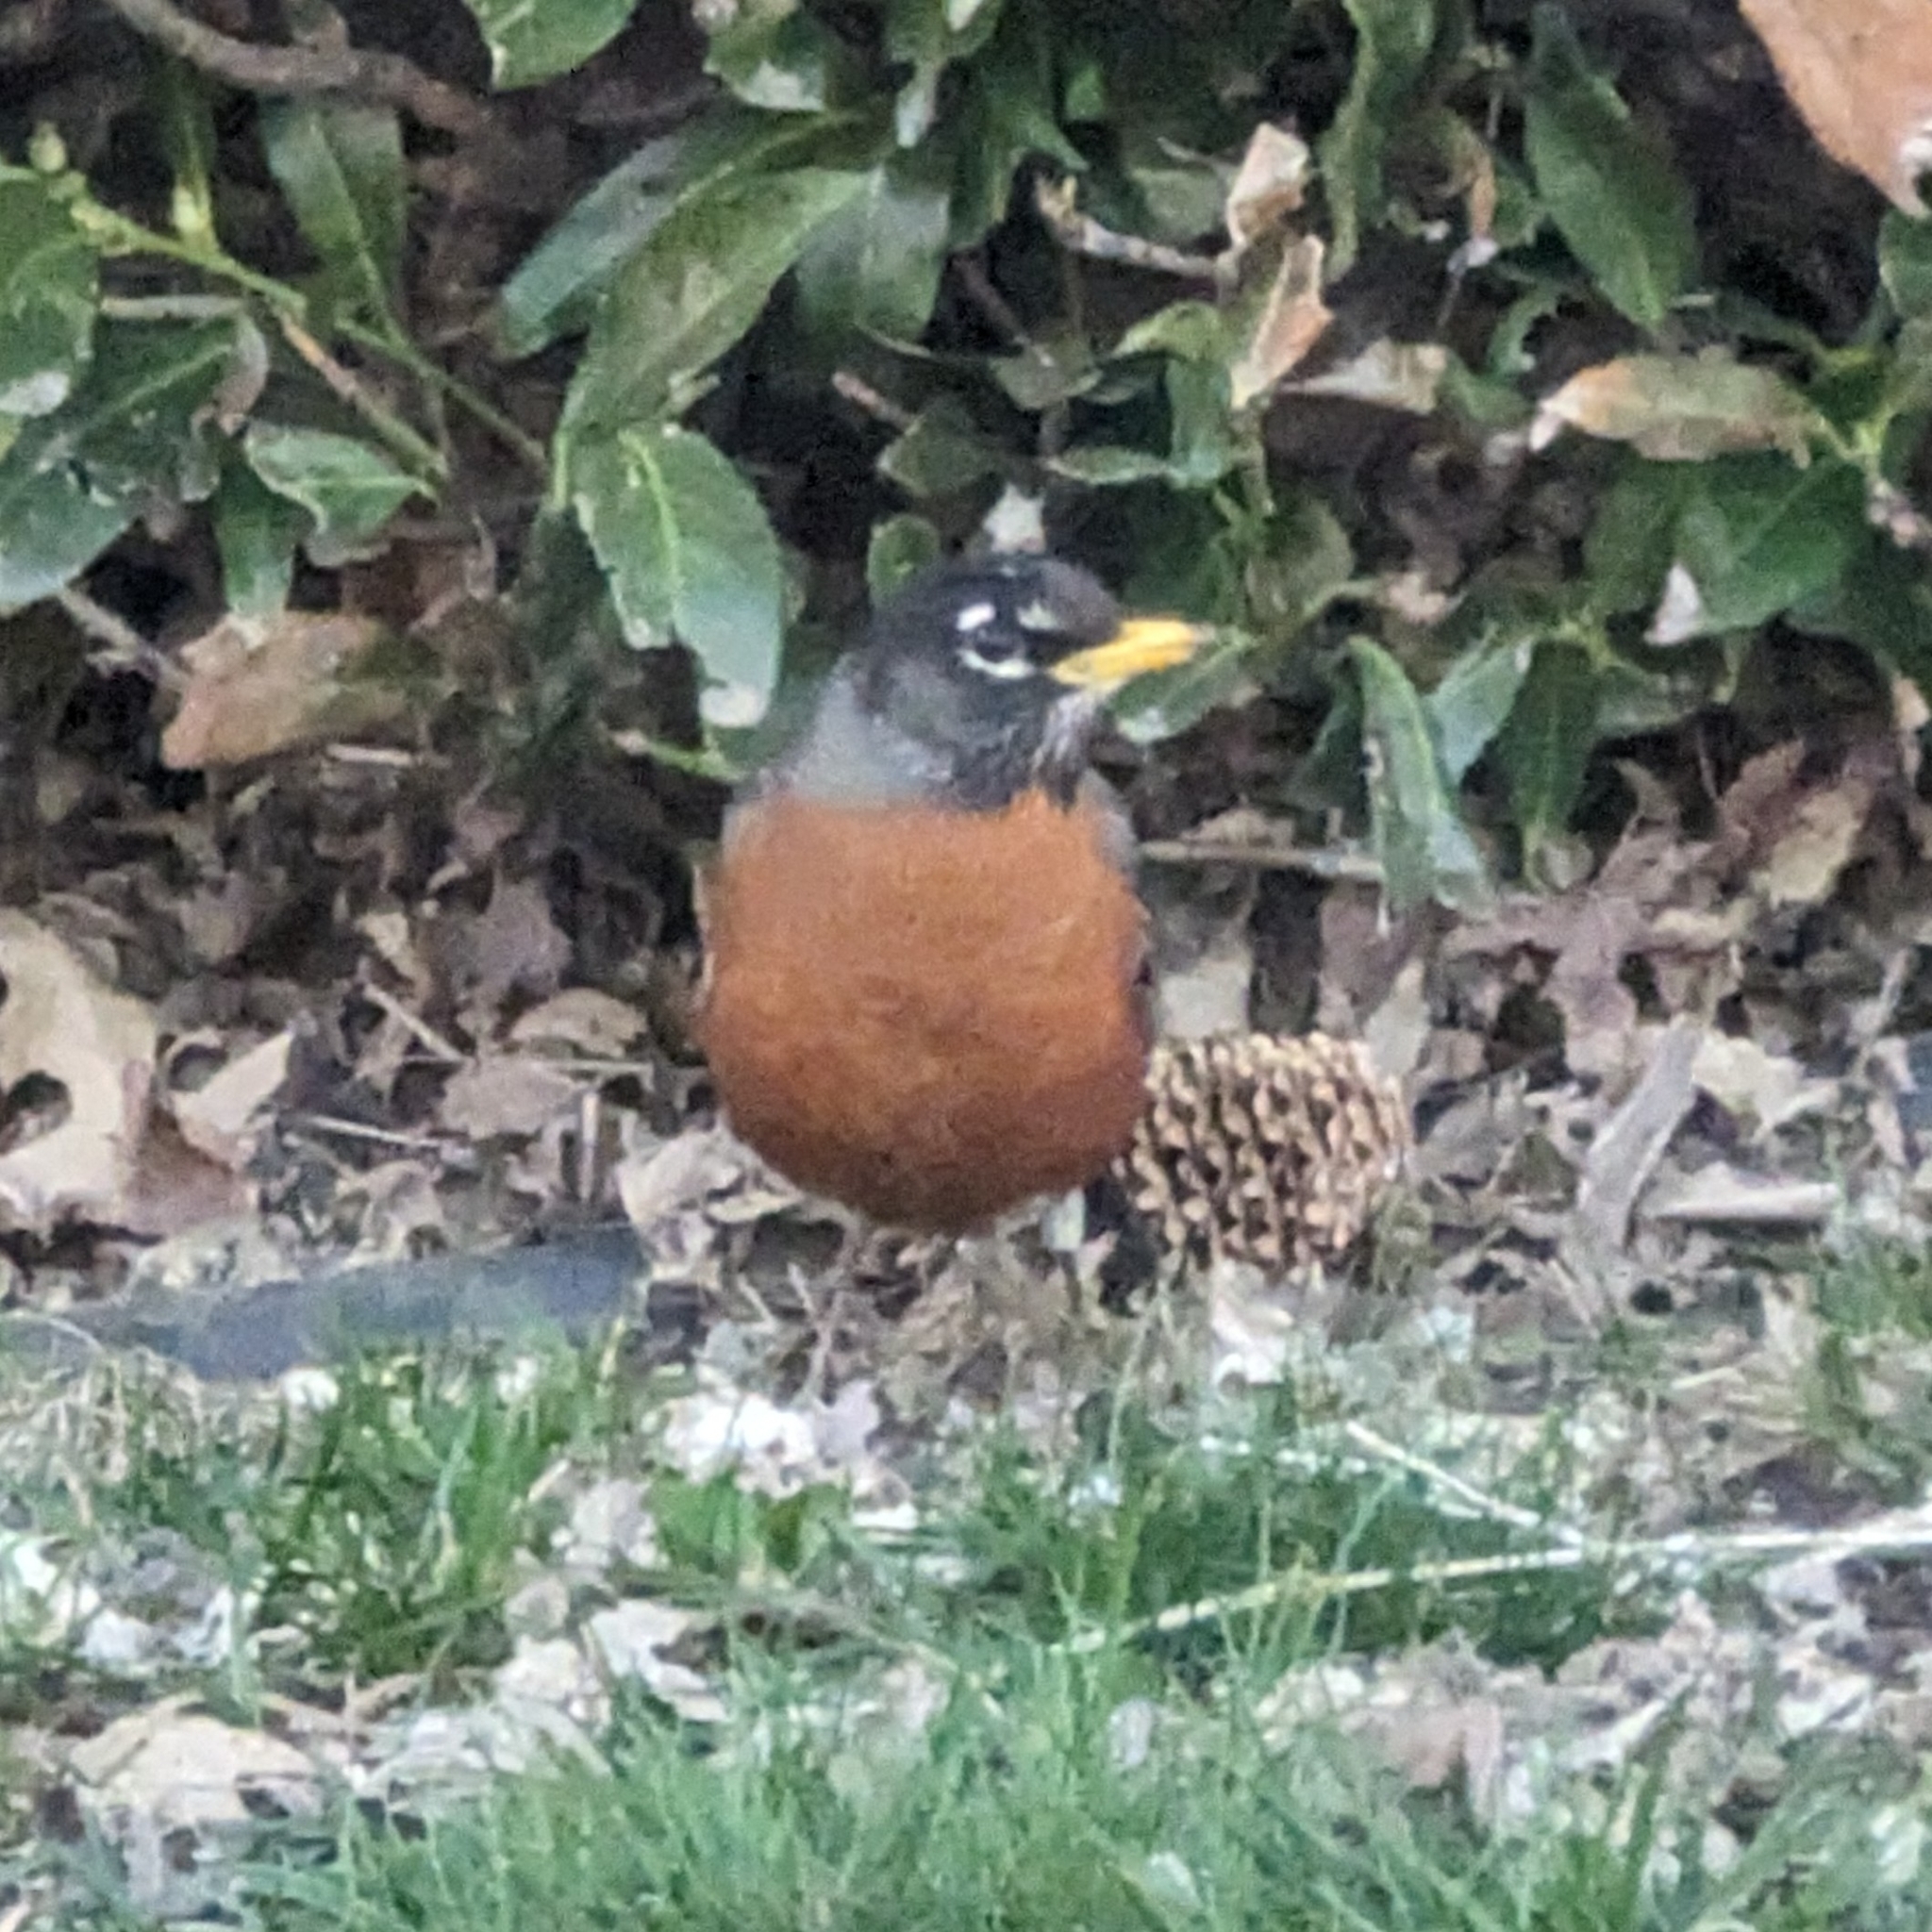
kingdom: Animalia
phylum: Chordata
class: Aves
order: Passeriformes
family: Turdidae
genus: Turdus
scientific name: Turdus migratorius
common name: American robin
